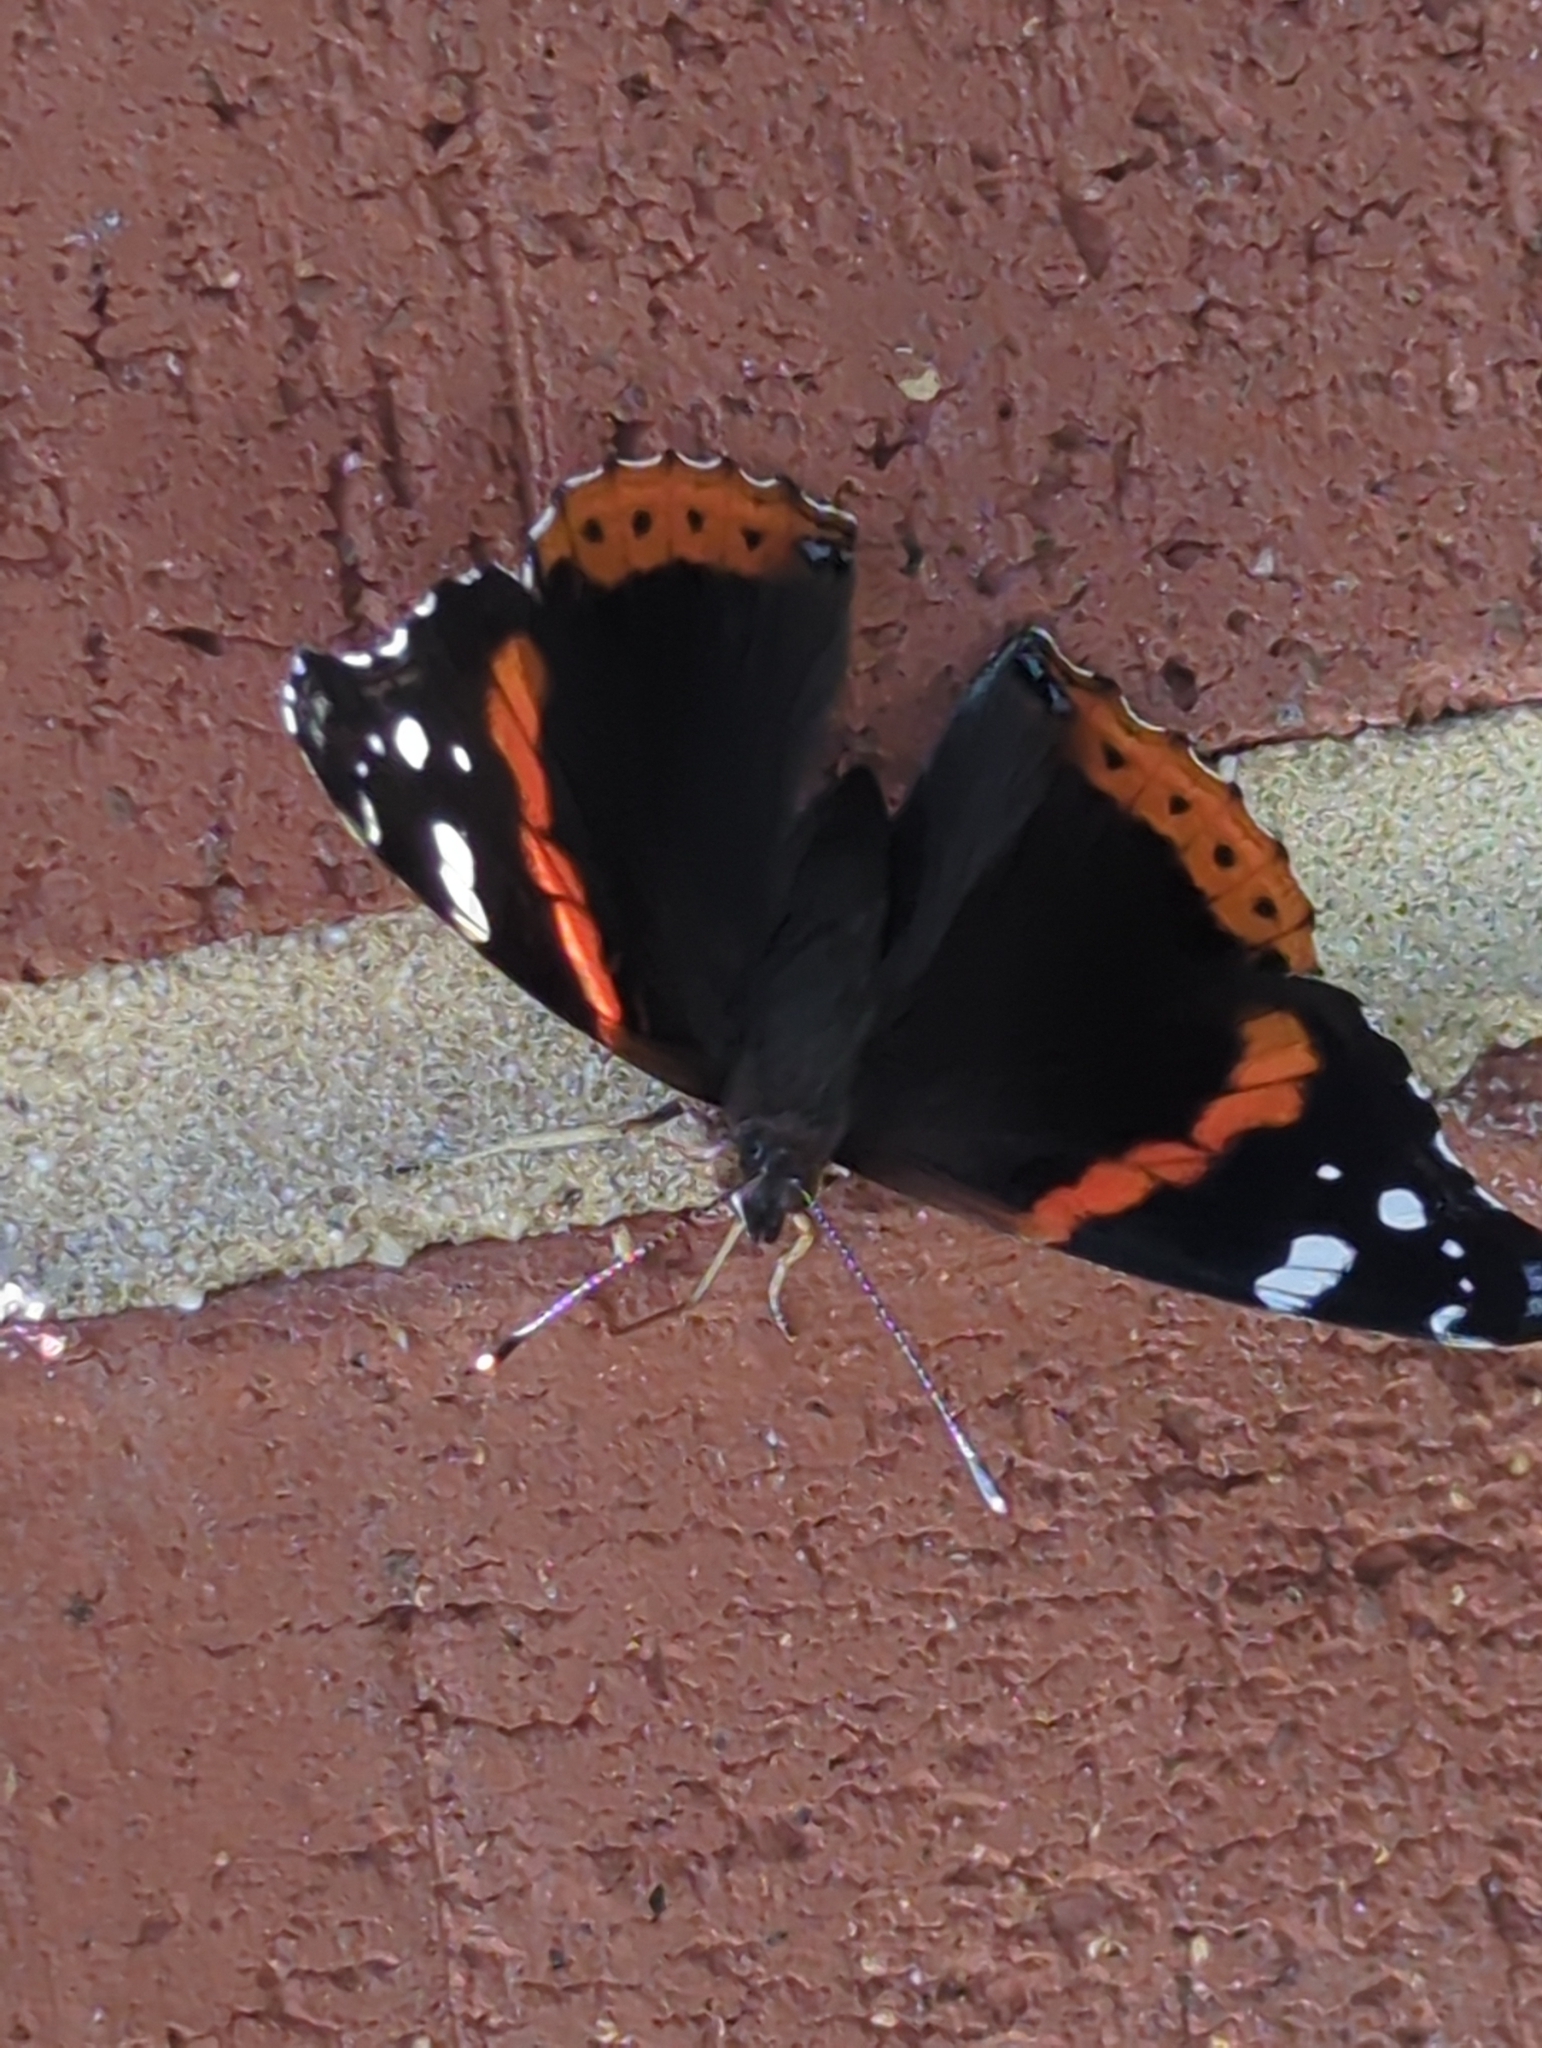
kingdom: Animalia
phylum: Arthropoda
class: Insecta
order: Lepidoptera
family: Nymphalidae
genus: Vanessa
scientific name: Vanessa atalanta
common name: Red admiral
